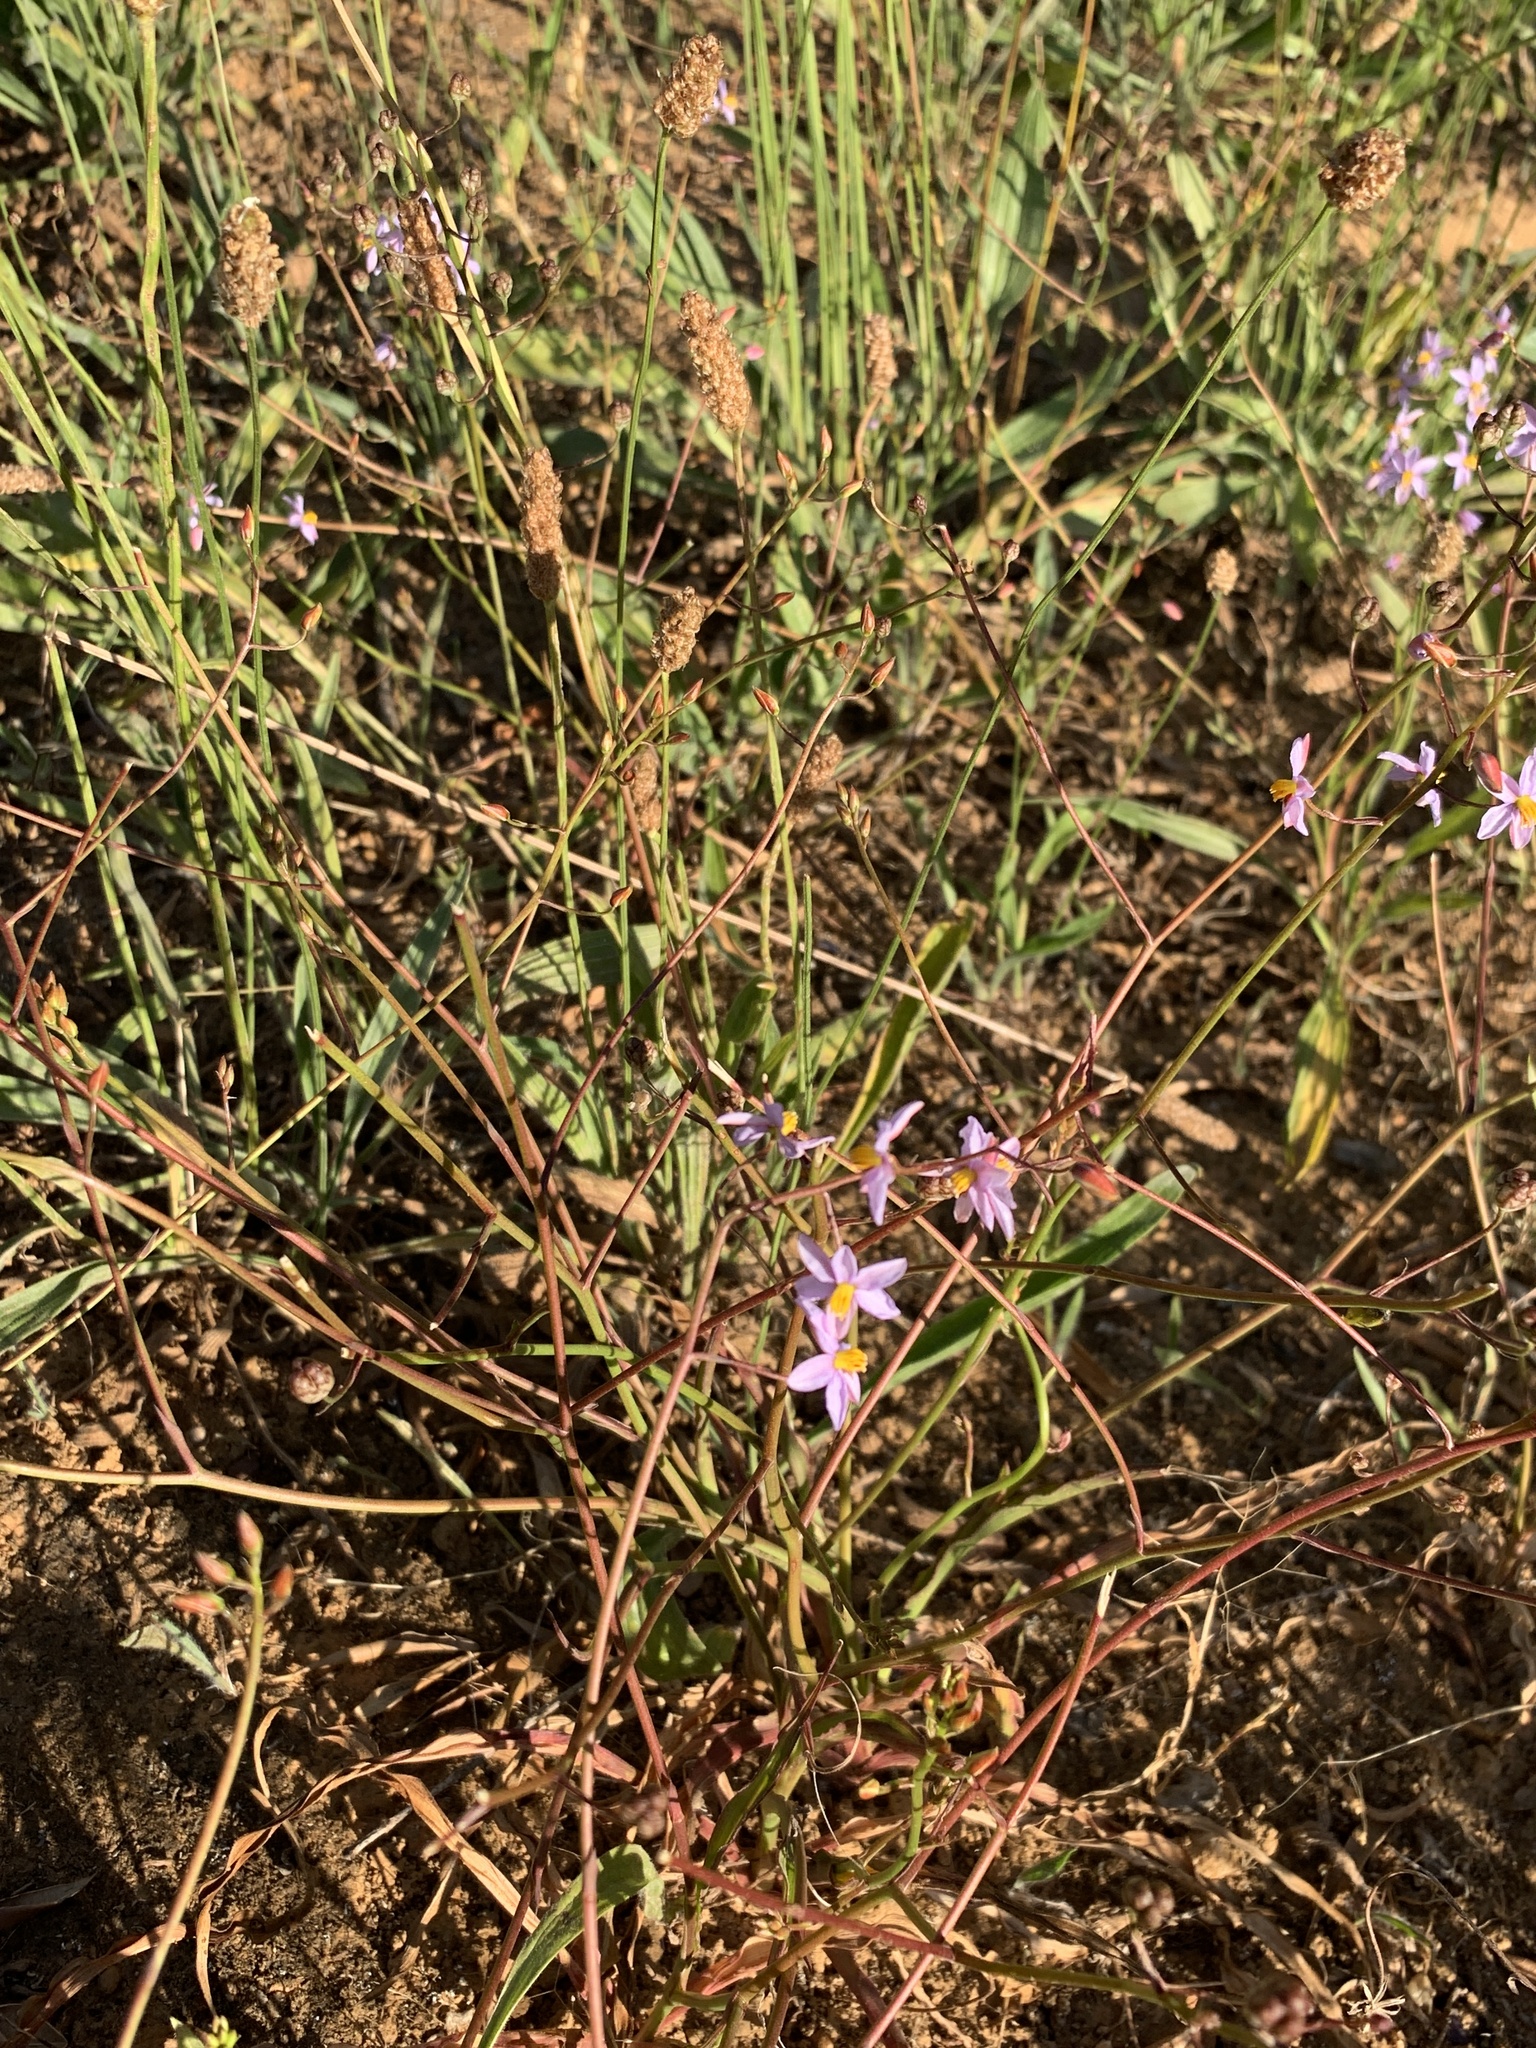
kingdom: Plantae
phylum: Tracheophyta
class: Liliopsida
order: Asparagales
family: Tecophilaeaceae
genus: Cyanella
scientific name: Cyanella hyacinthoides
